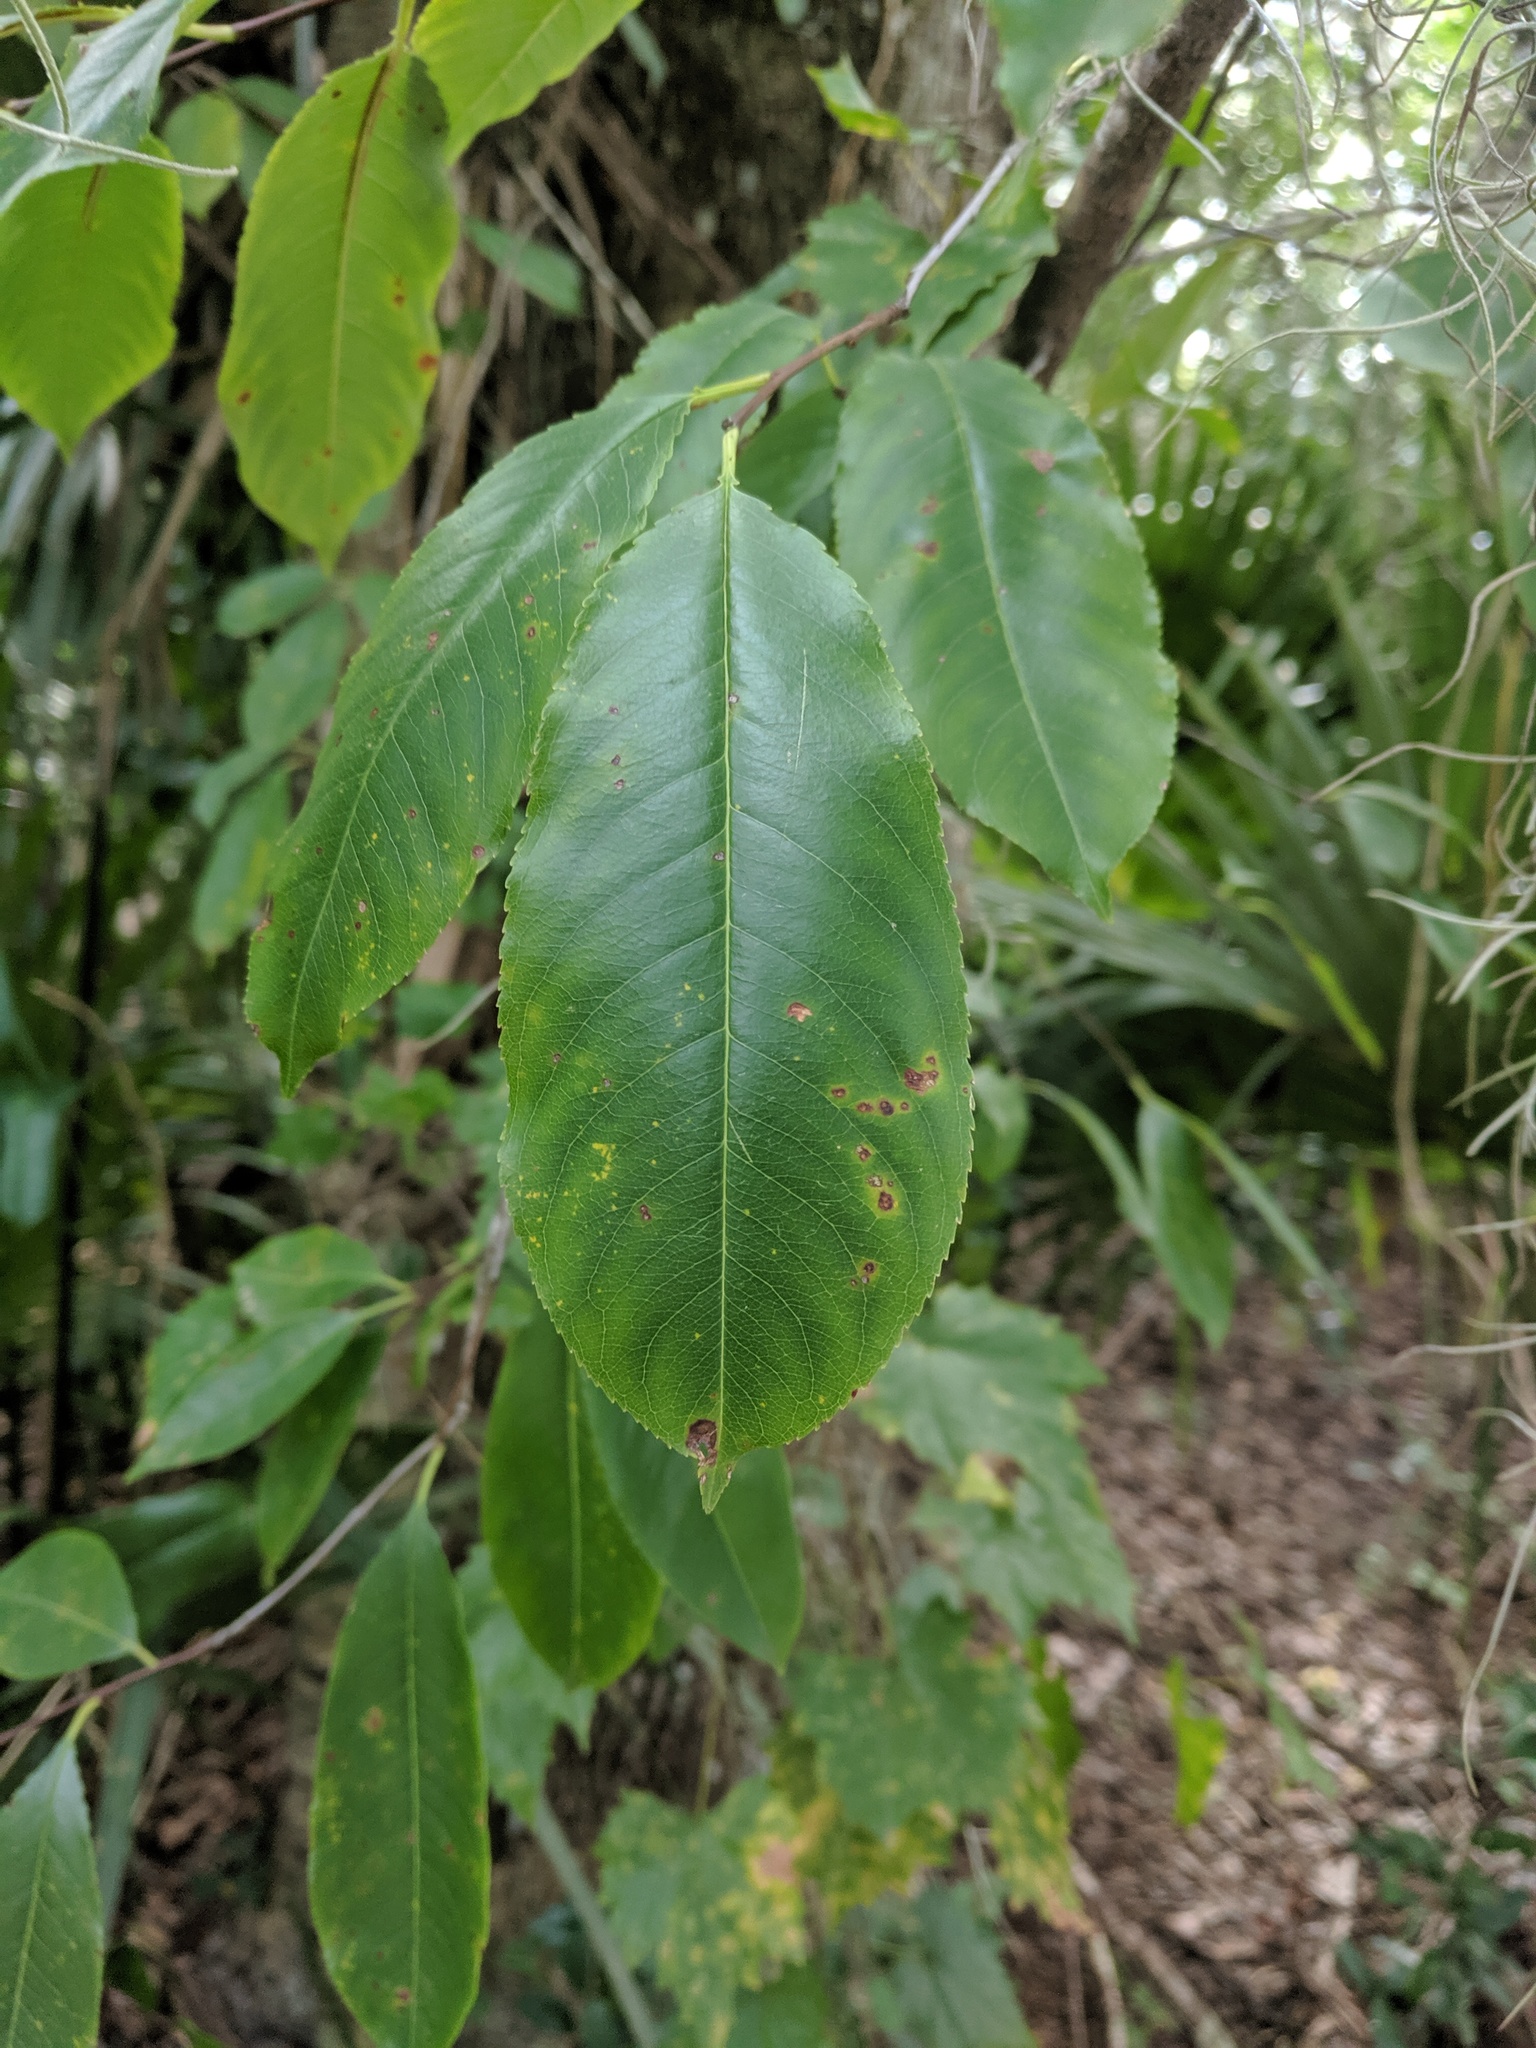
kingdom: Plantae
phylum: Tracheophyta
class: Magnoliopsida
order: Rosales
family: Rosaceae
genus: Prunus
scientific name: Prunus serotina
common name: Black cherry
